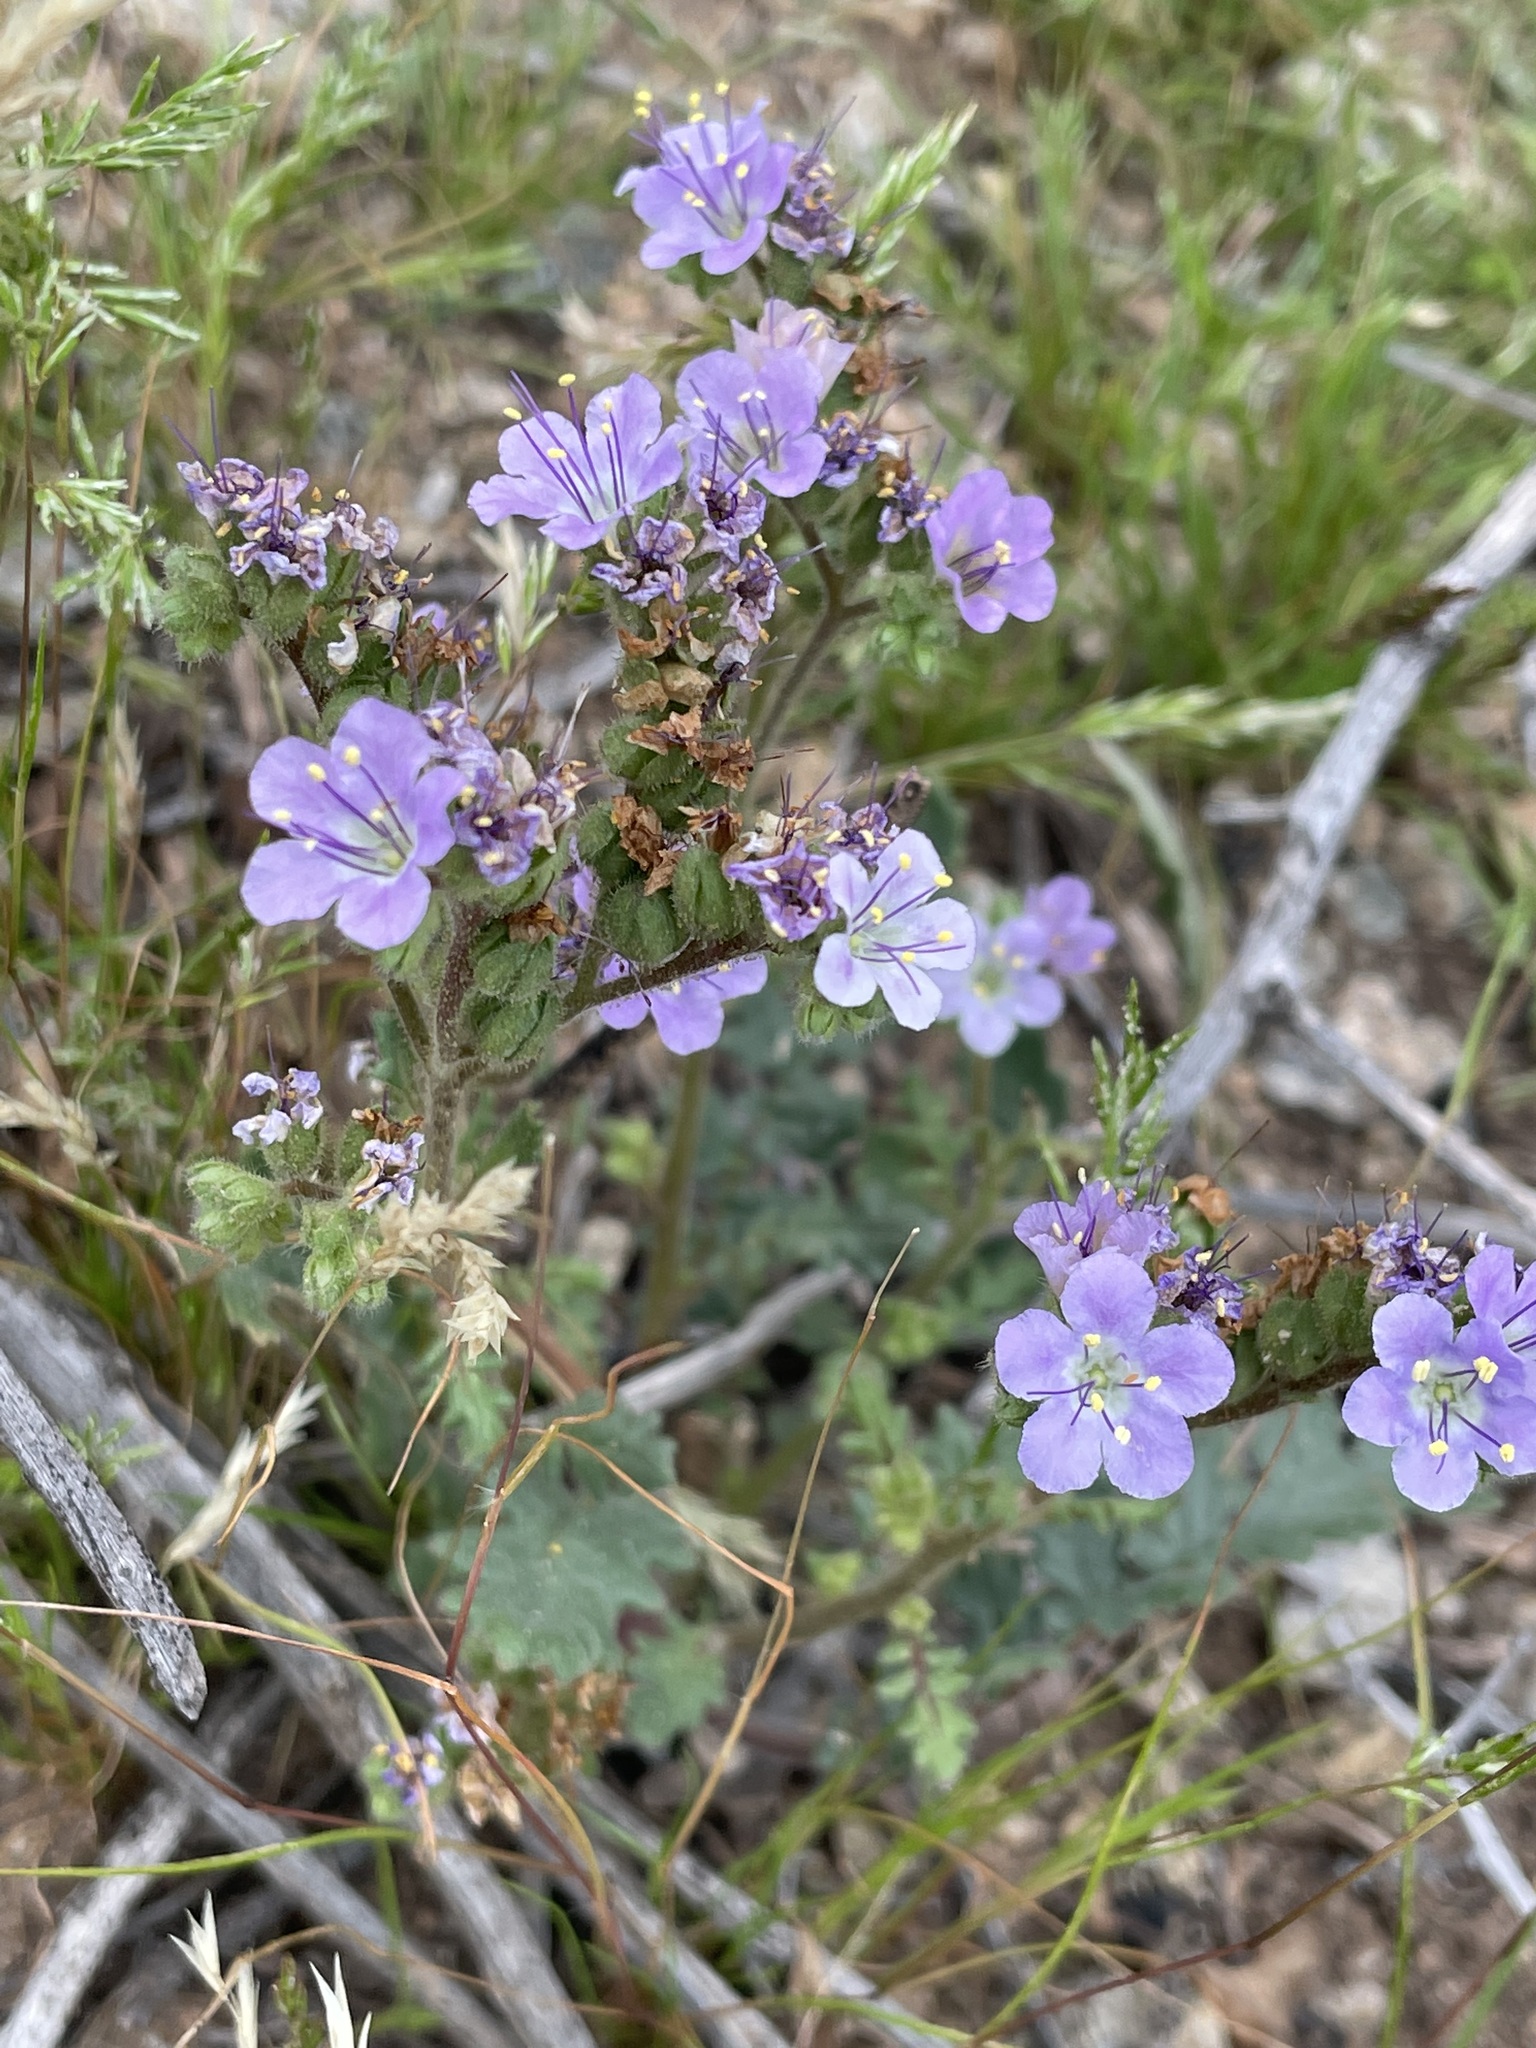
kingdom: Plantae
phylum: Tracheophyta
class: Magnoliopsida
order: Boraginales
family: Hydrophyllaceae
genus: Phacelia
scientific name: Phacelia crenulata
